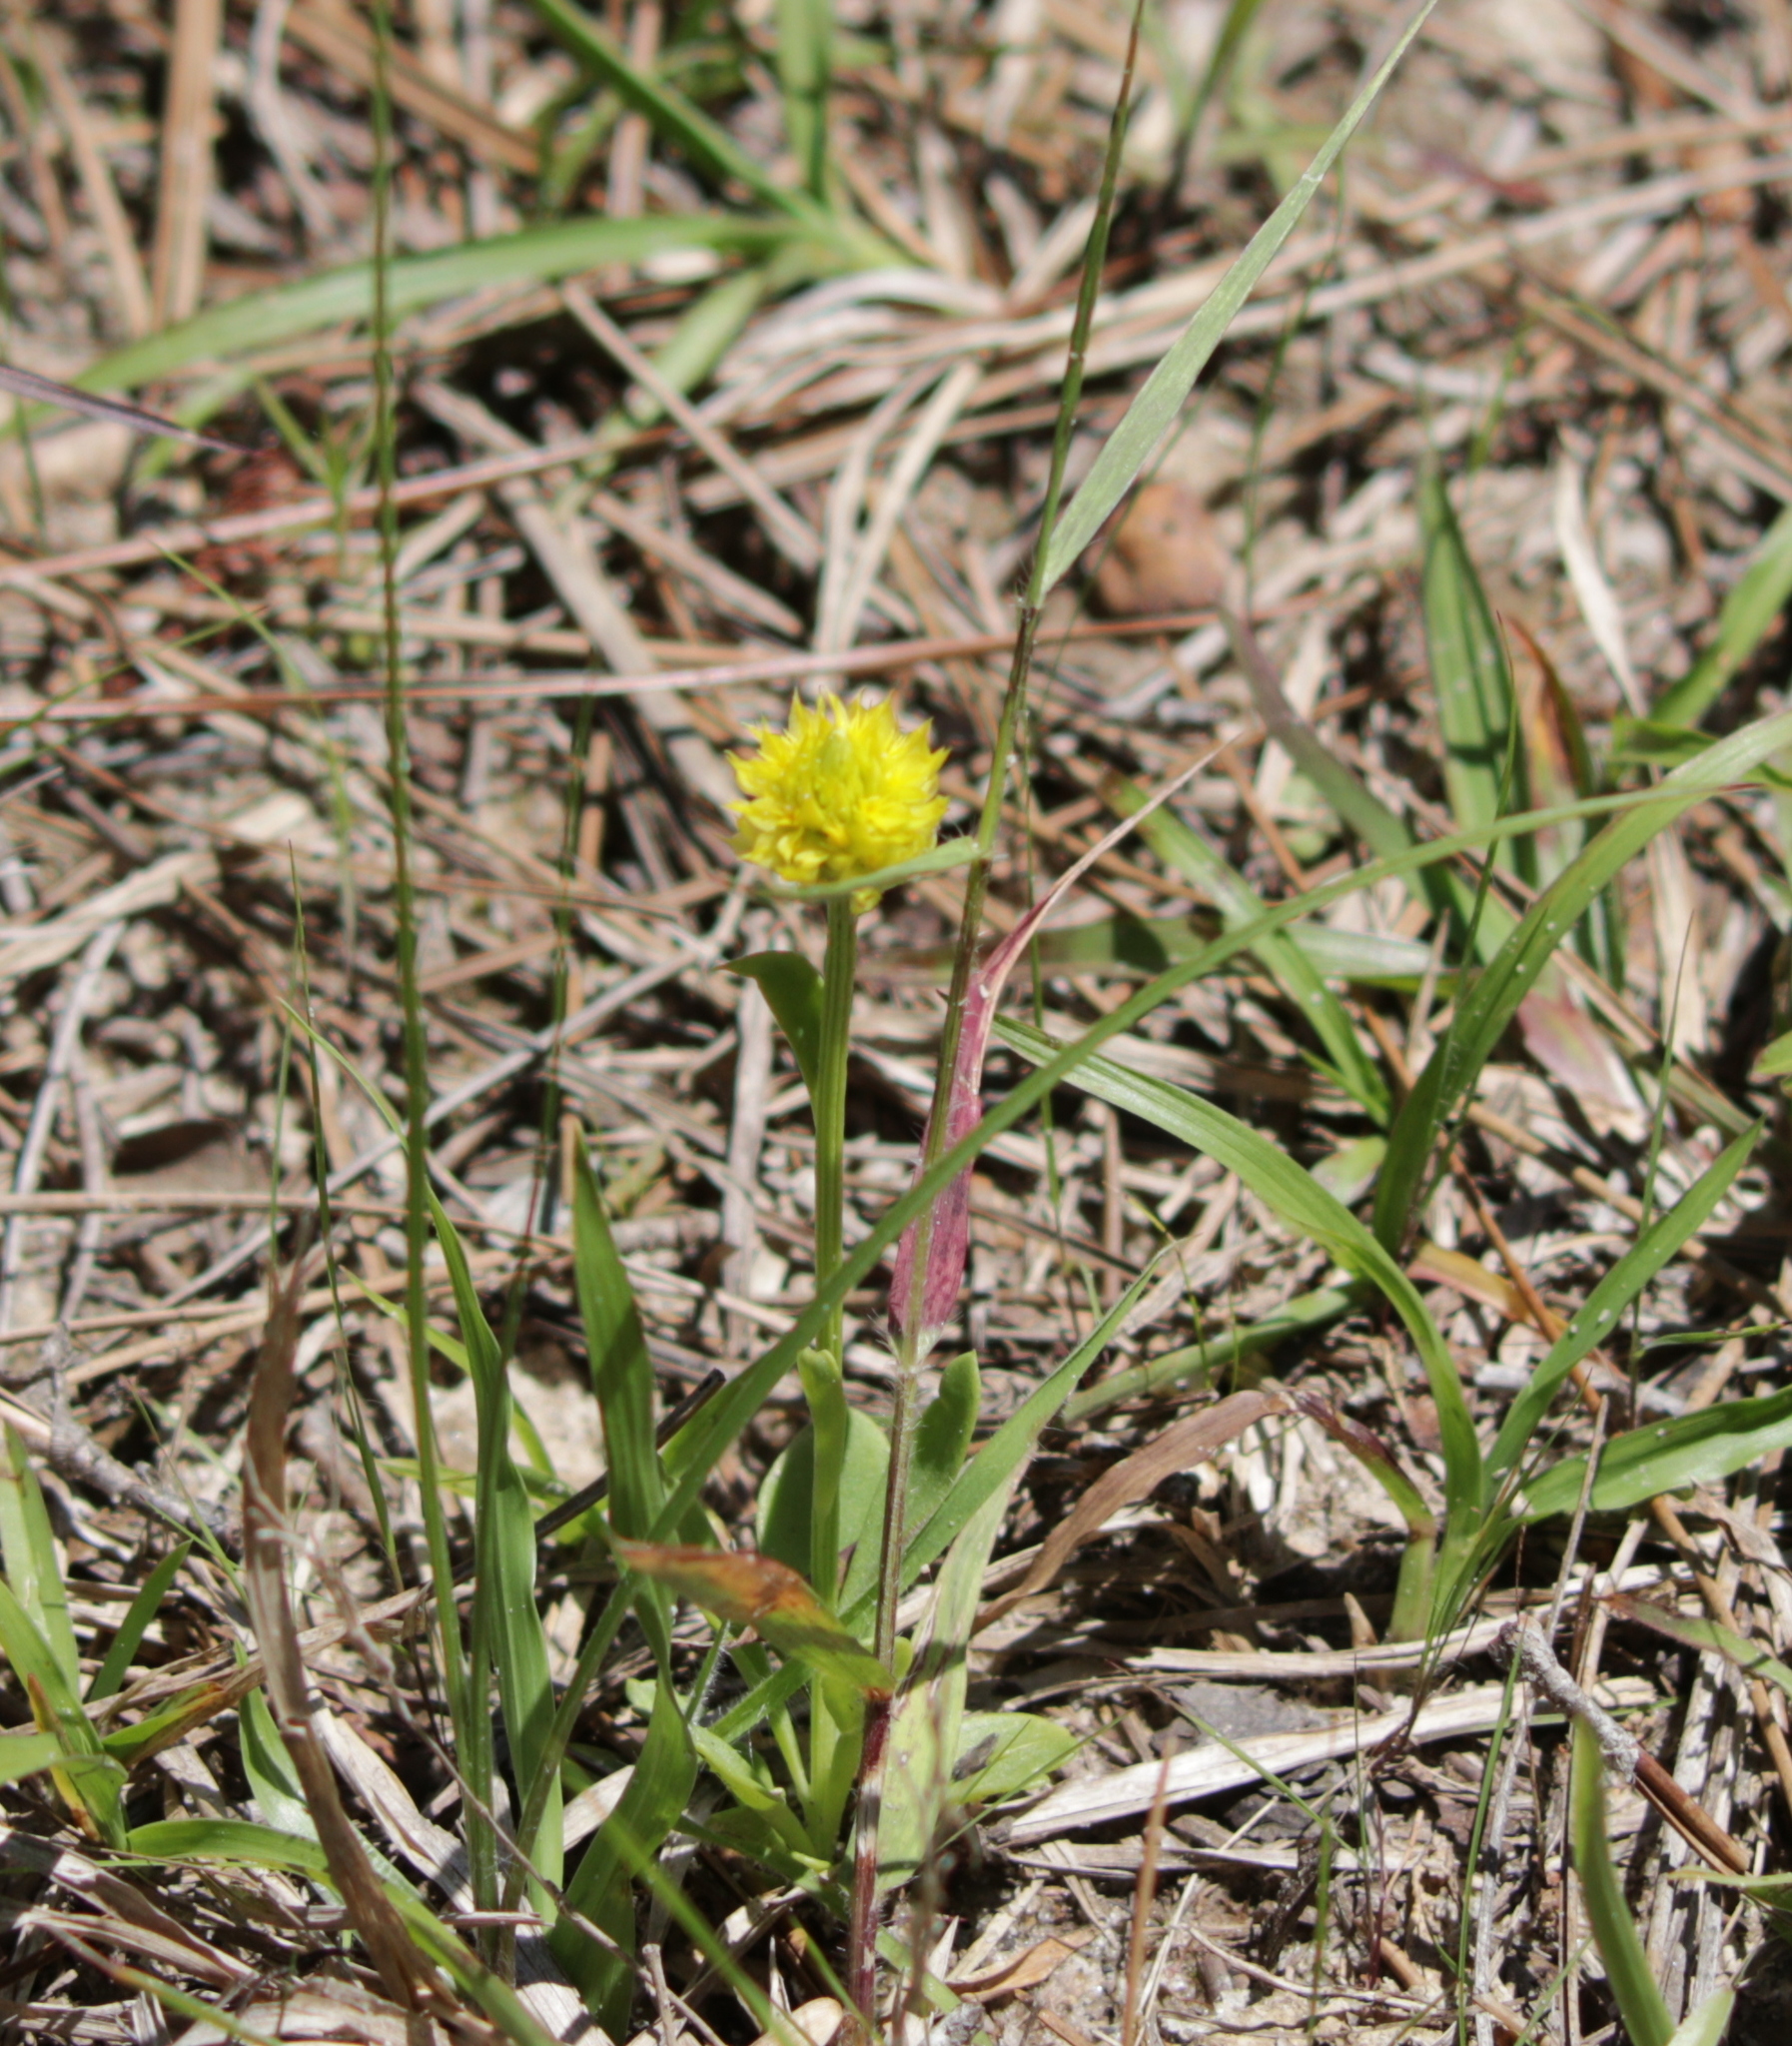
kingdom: Plantae
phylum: Tracheophyta
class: Magnoliopsida
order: Fabales
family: Polygalaceae
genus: Polygala
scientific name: Polygala nana
